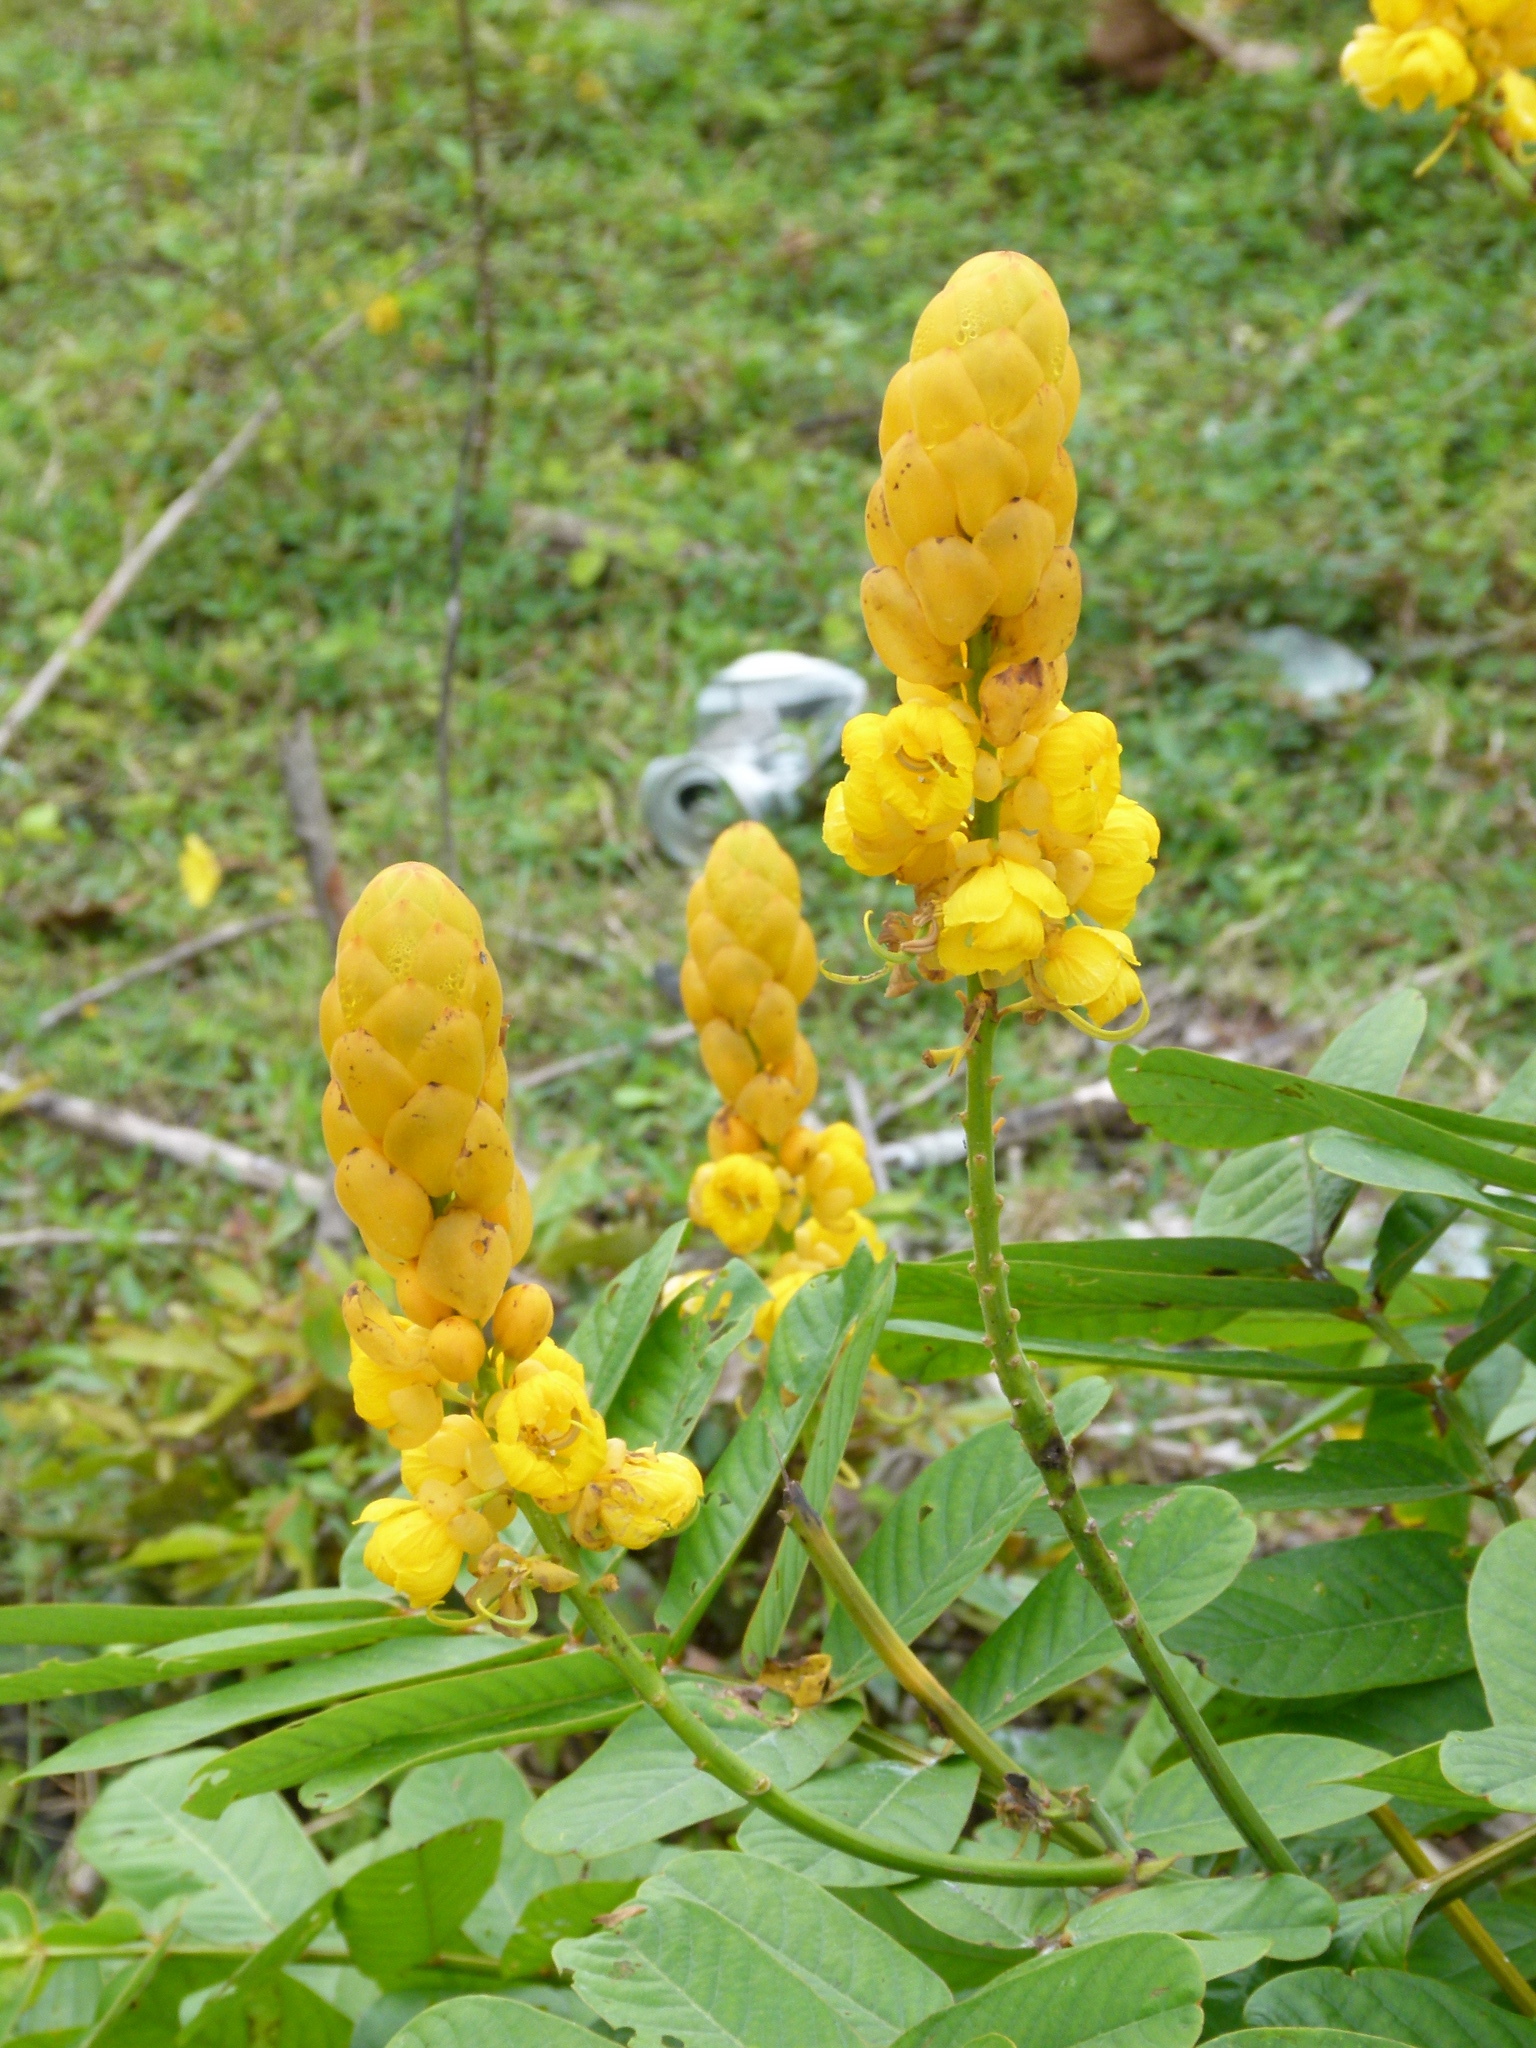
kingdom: Plantae
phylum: Tracheophyta
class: Magnoliopsida
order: Fabales
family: Fabaceae
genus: Senna
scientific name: Senna alata
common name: Emperor's candlesticks
